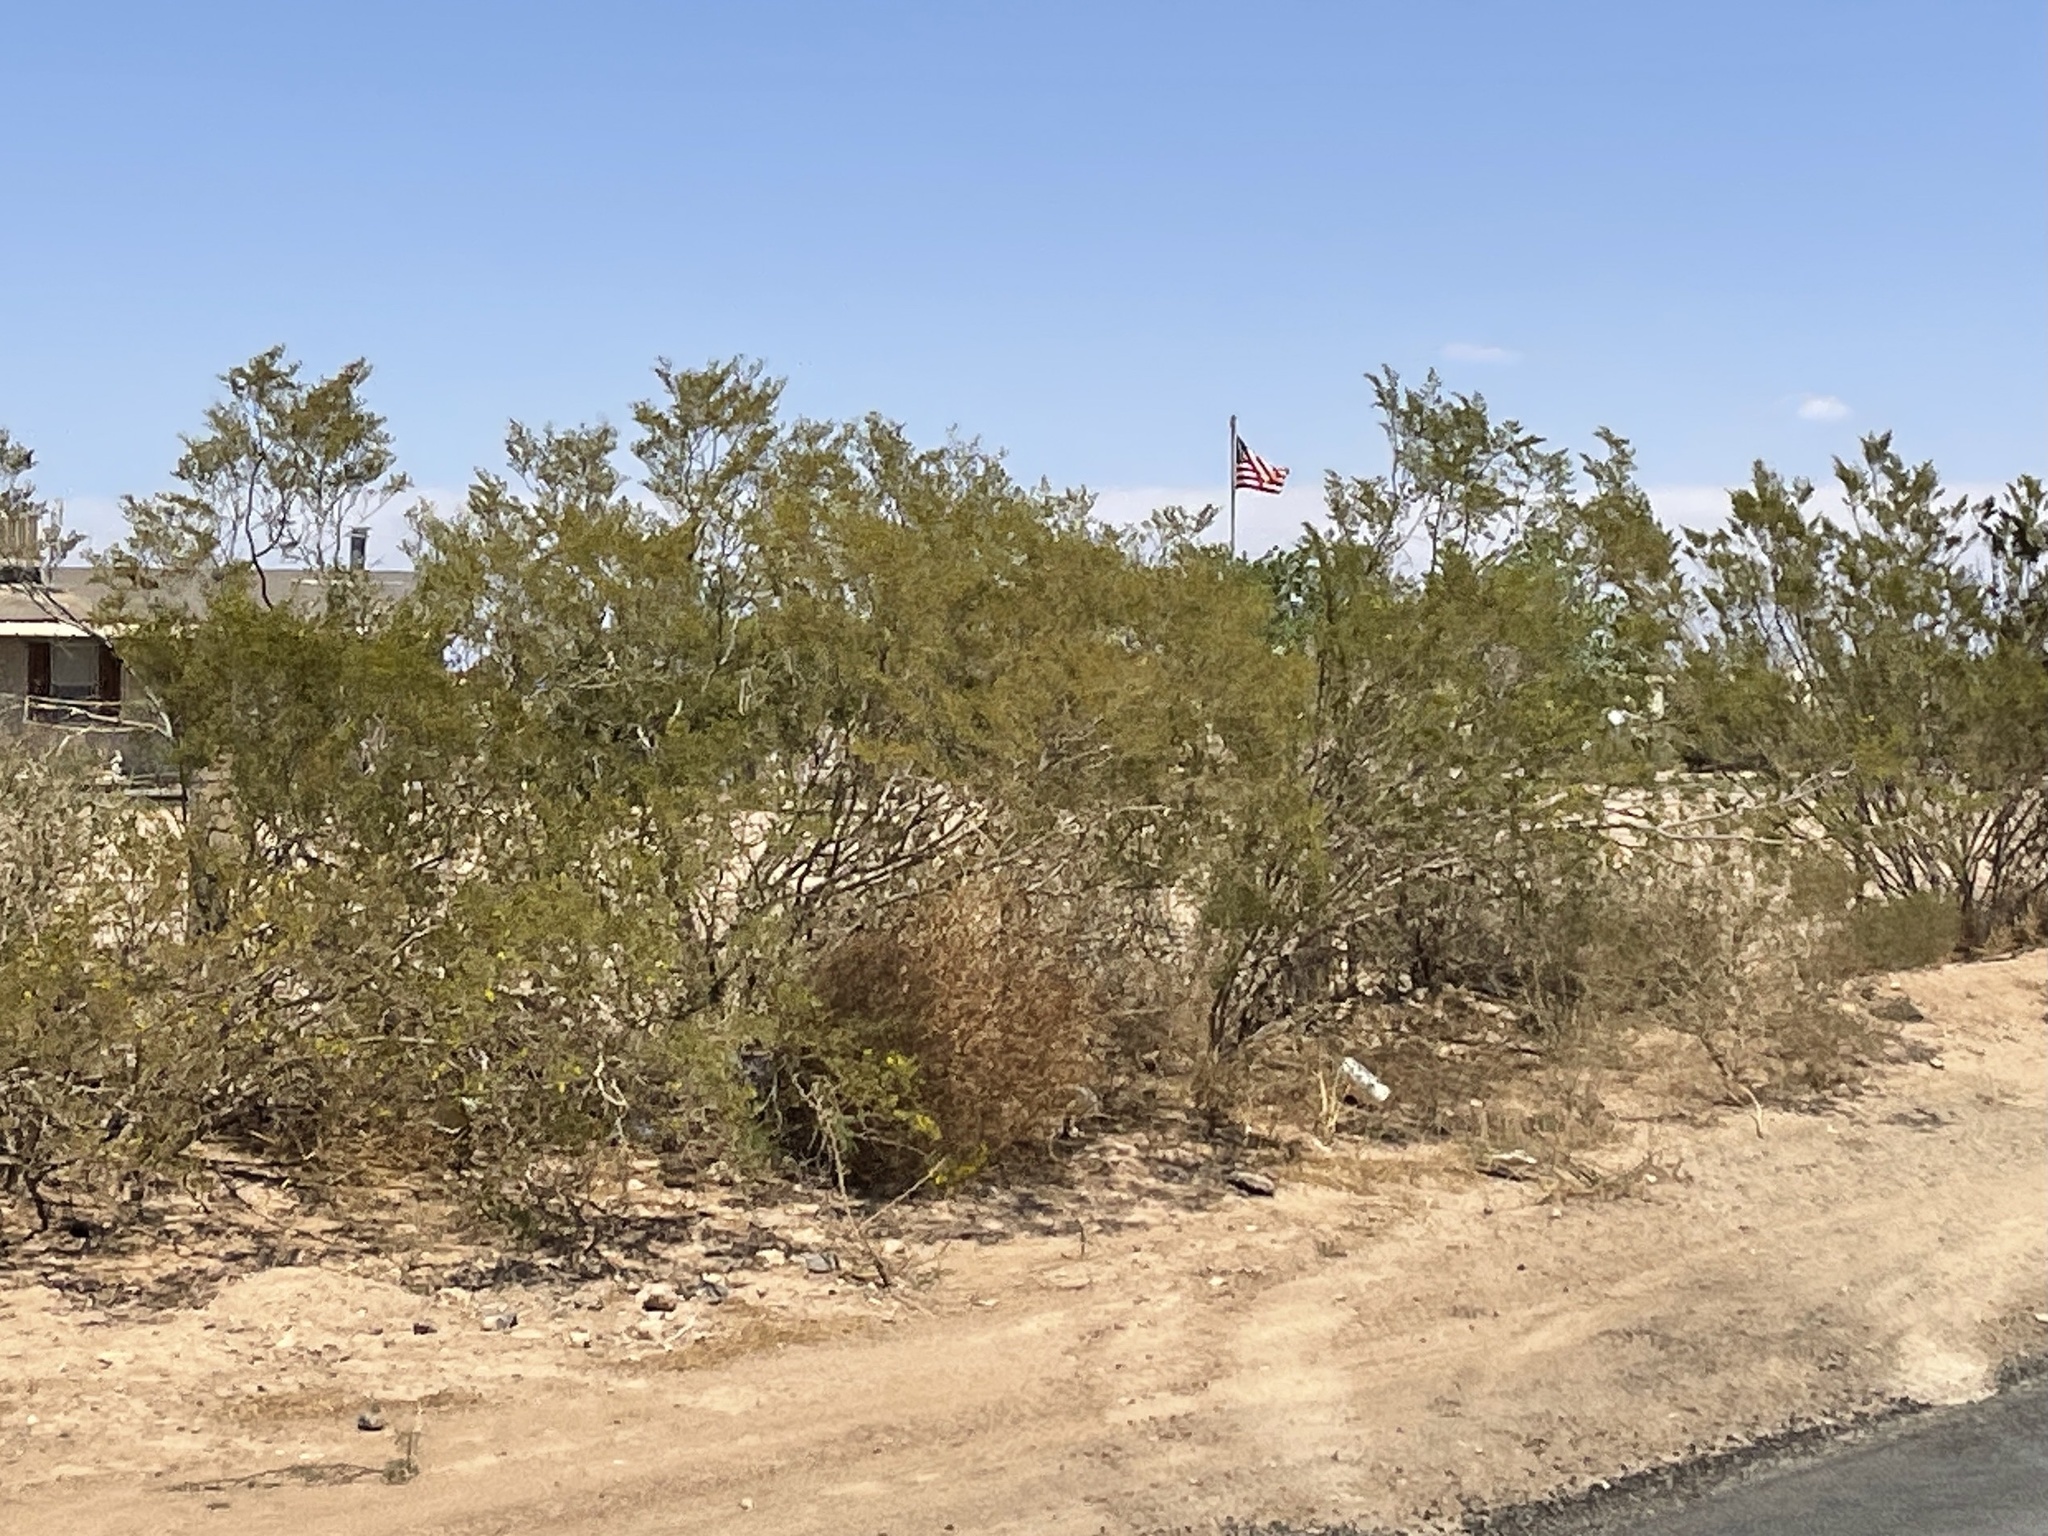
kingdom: Plantae
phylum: Tracheophyta
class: Magnoliopsida
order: Zygophyllales
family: Zygophyllaceae
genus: Larrea
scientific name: Larrea tridentata
